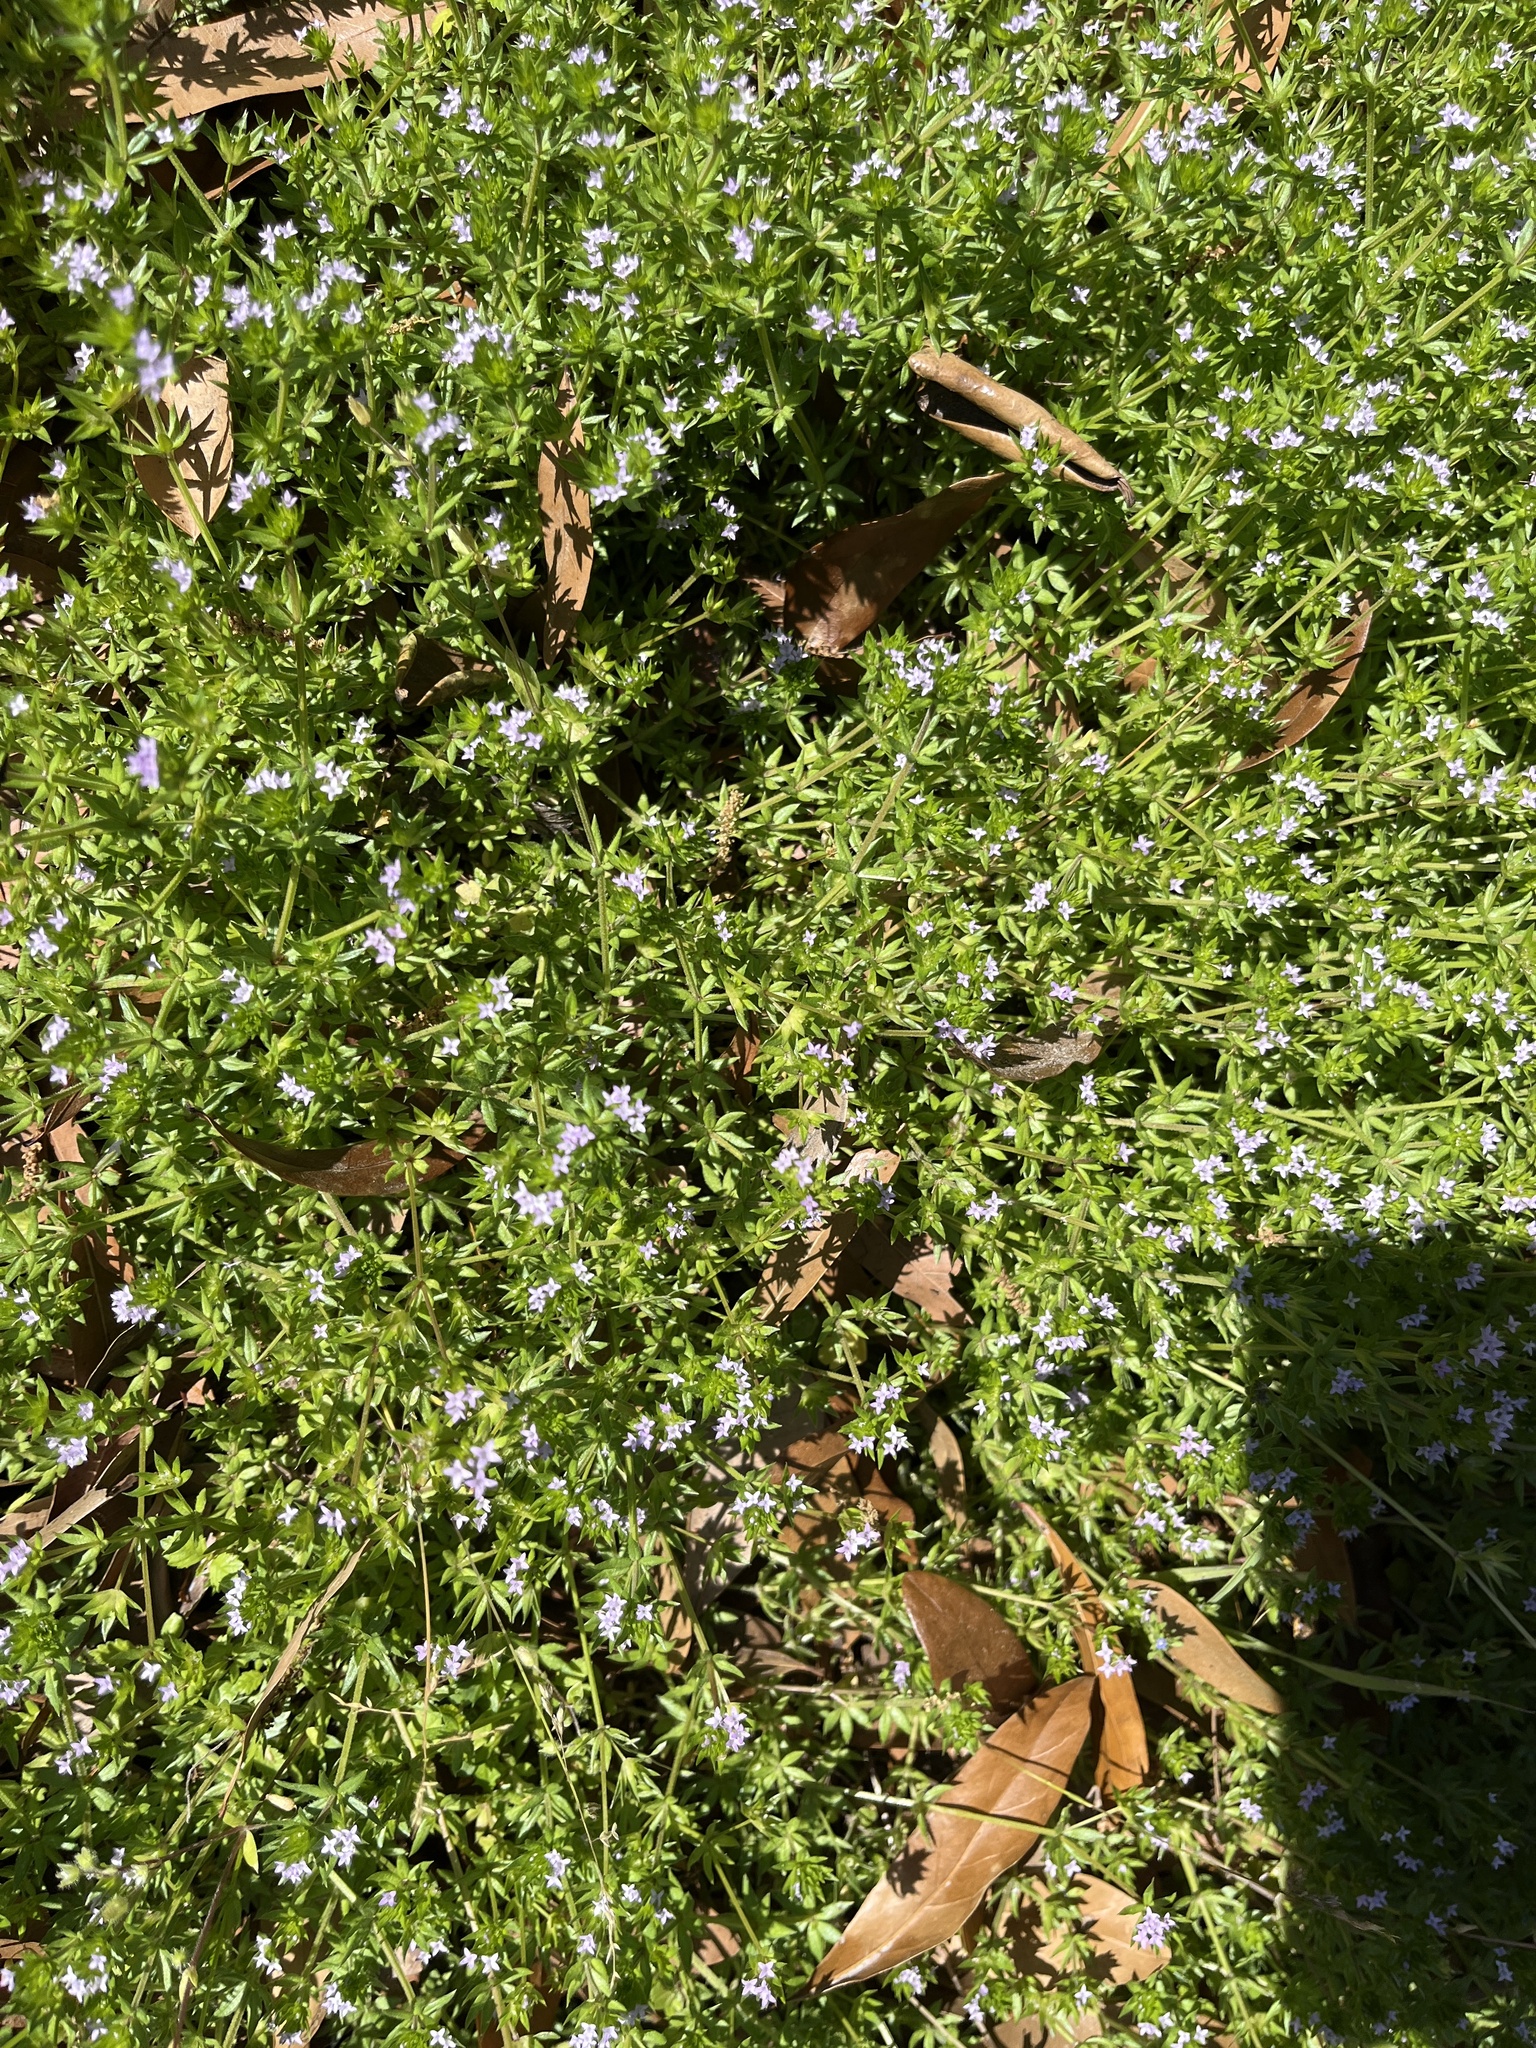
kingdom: Plantae
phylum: Tracheophyta
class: Magnoliopsida
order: Gentianales
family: Rubiaceae
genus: Sherardia
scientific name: Sherardia arvensis
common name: Field madder
